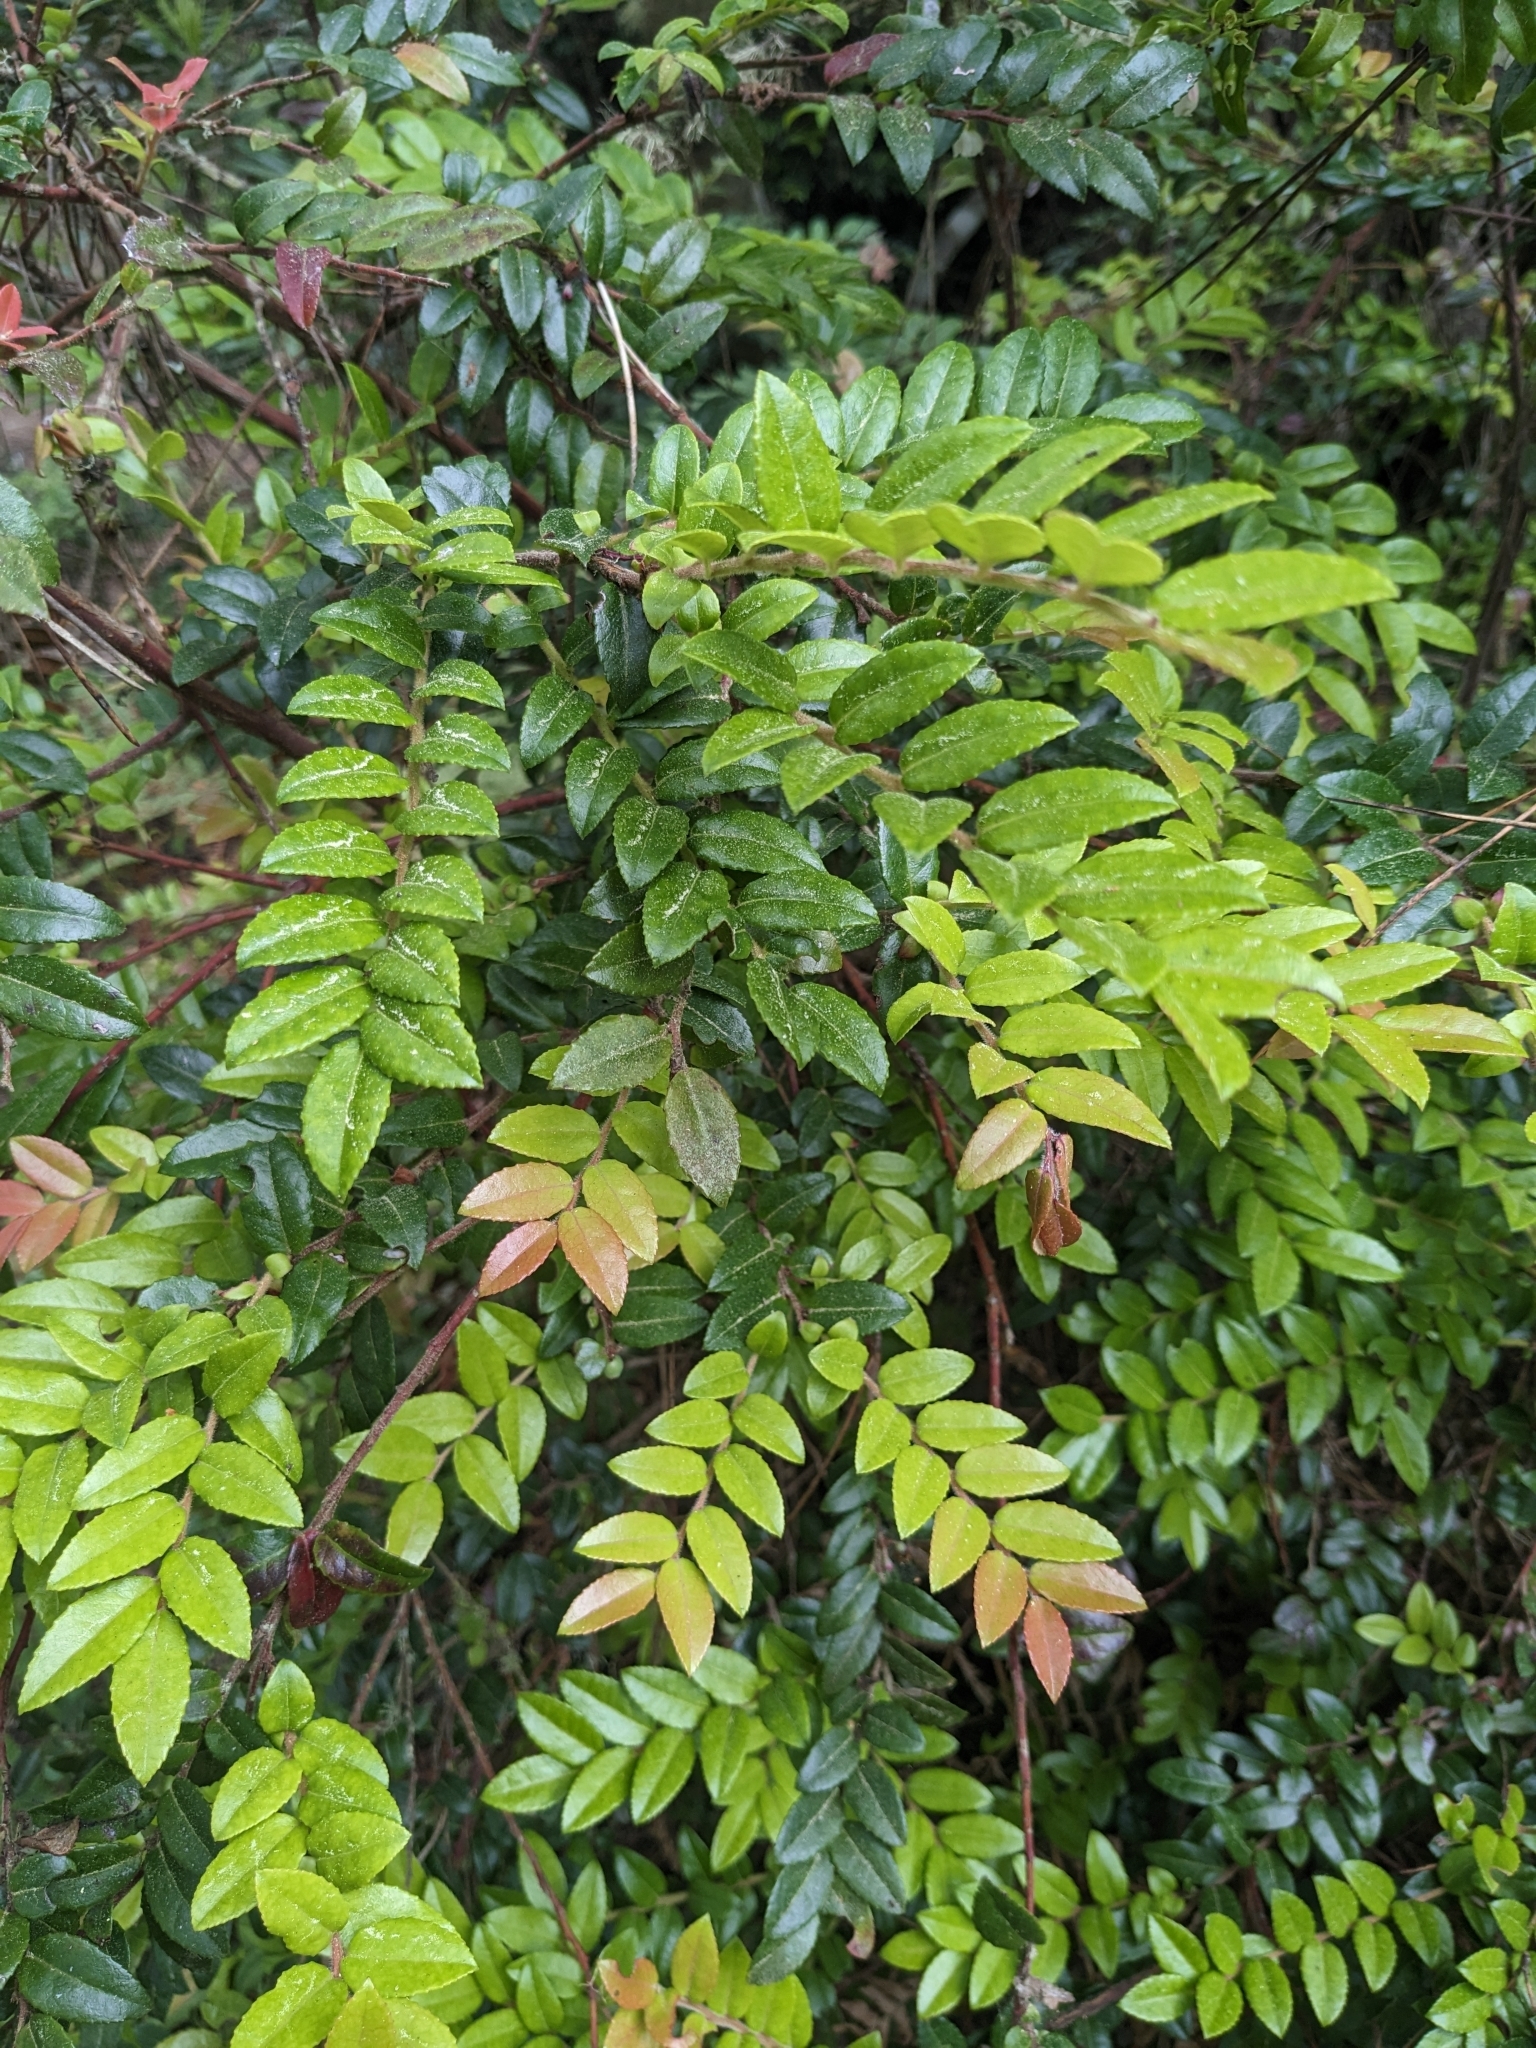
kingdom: Plantae
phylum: Tracheophyta
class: Magnoliopsida
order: Ericales
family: Ericaceae
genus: Vaccinium
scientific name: Vaccinium ovatum
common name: California-huckleberry
